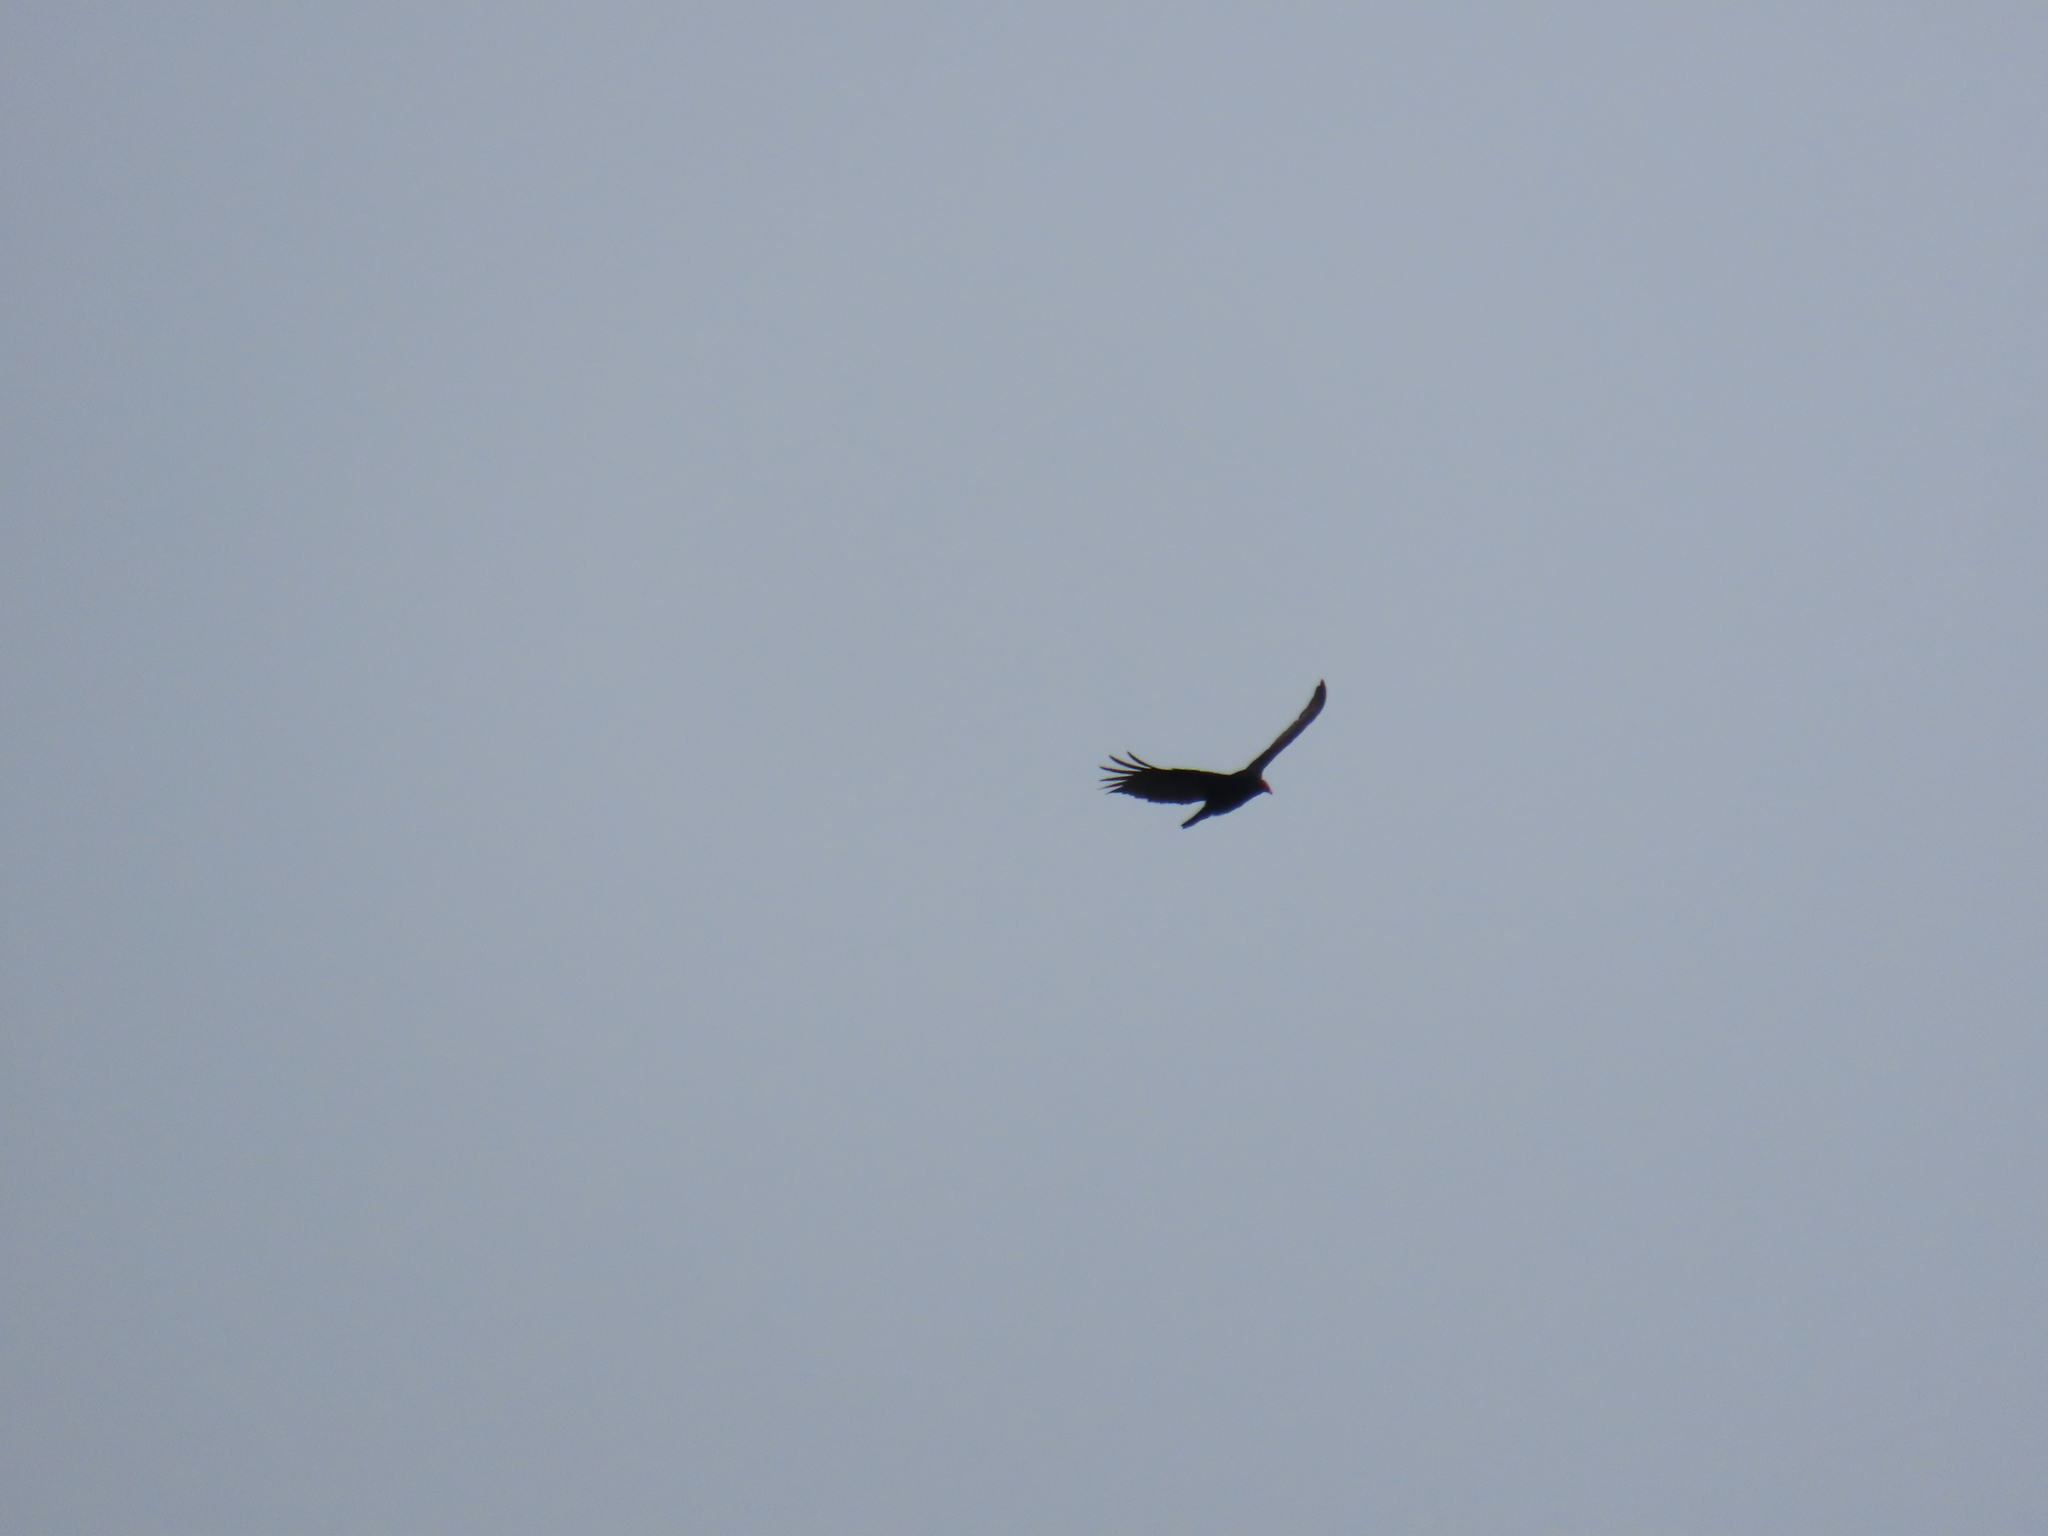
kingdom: Animalia
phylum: Chordata
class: Aves
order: Accipitriformes
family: Cathartidae
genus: Cathartes
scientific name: Cathartes aura
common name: Turkey vulture
